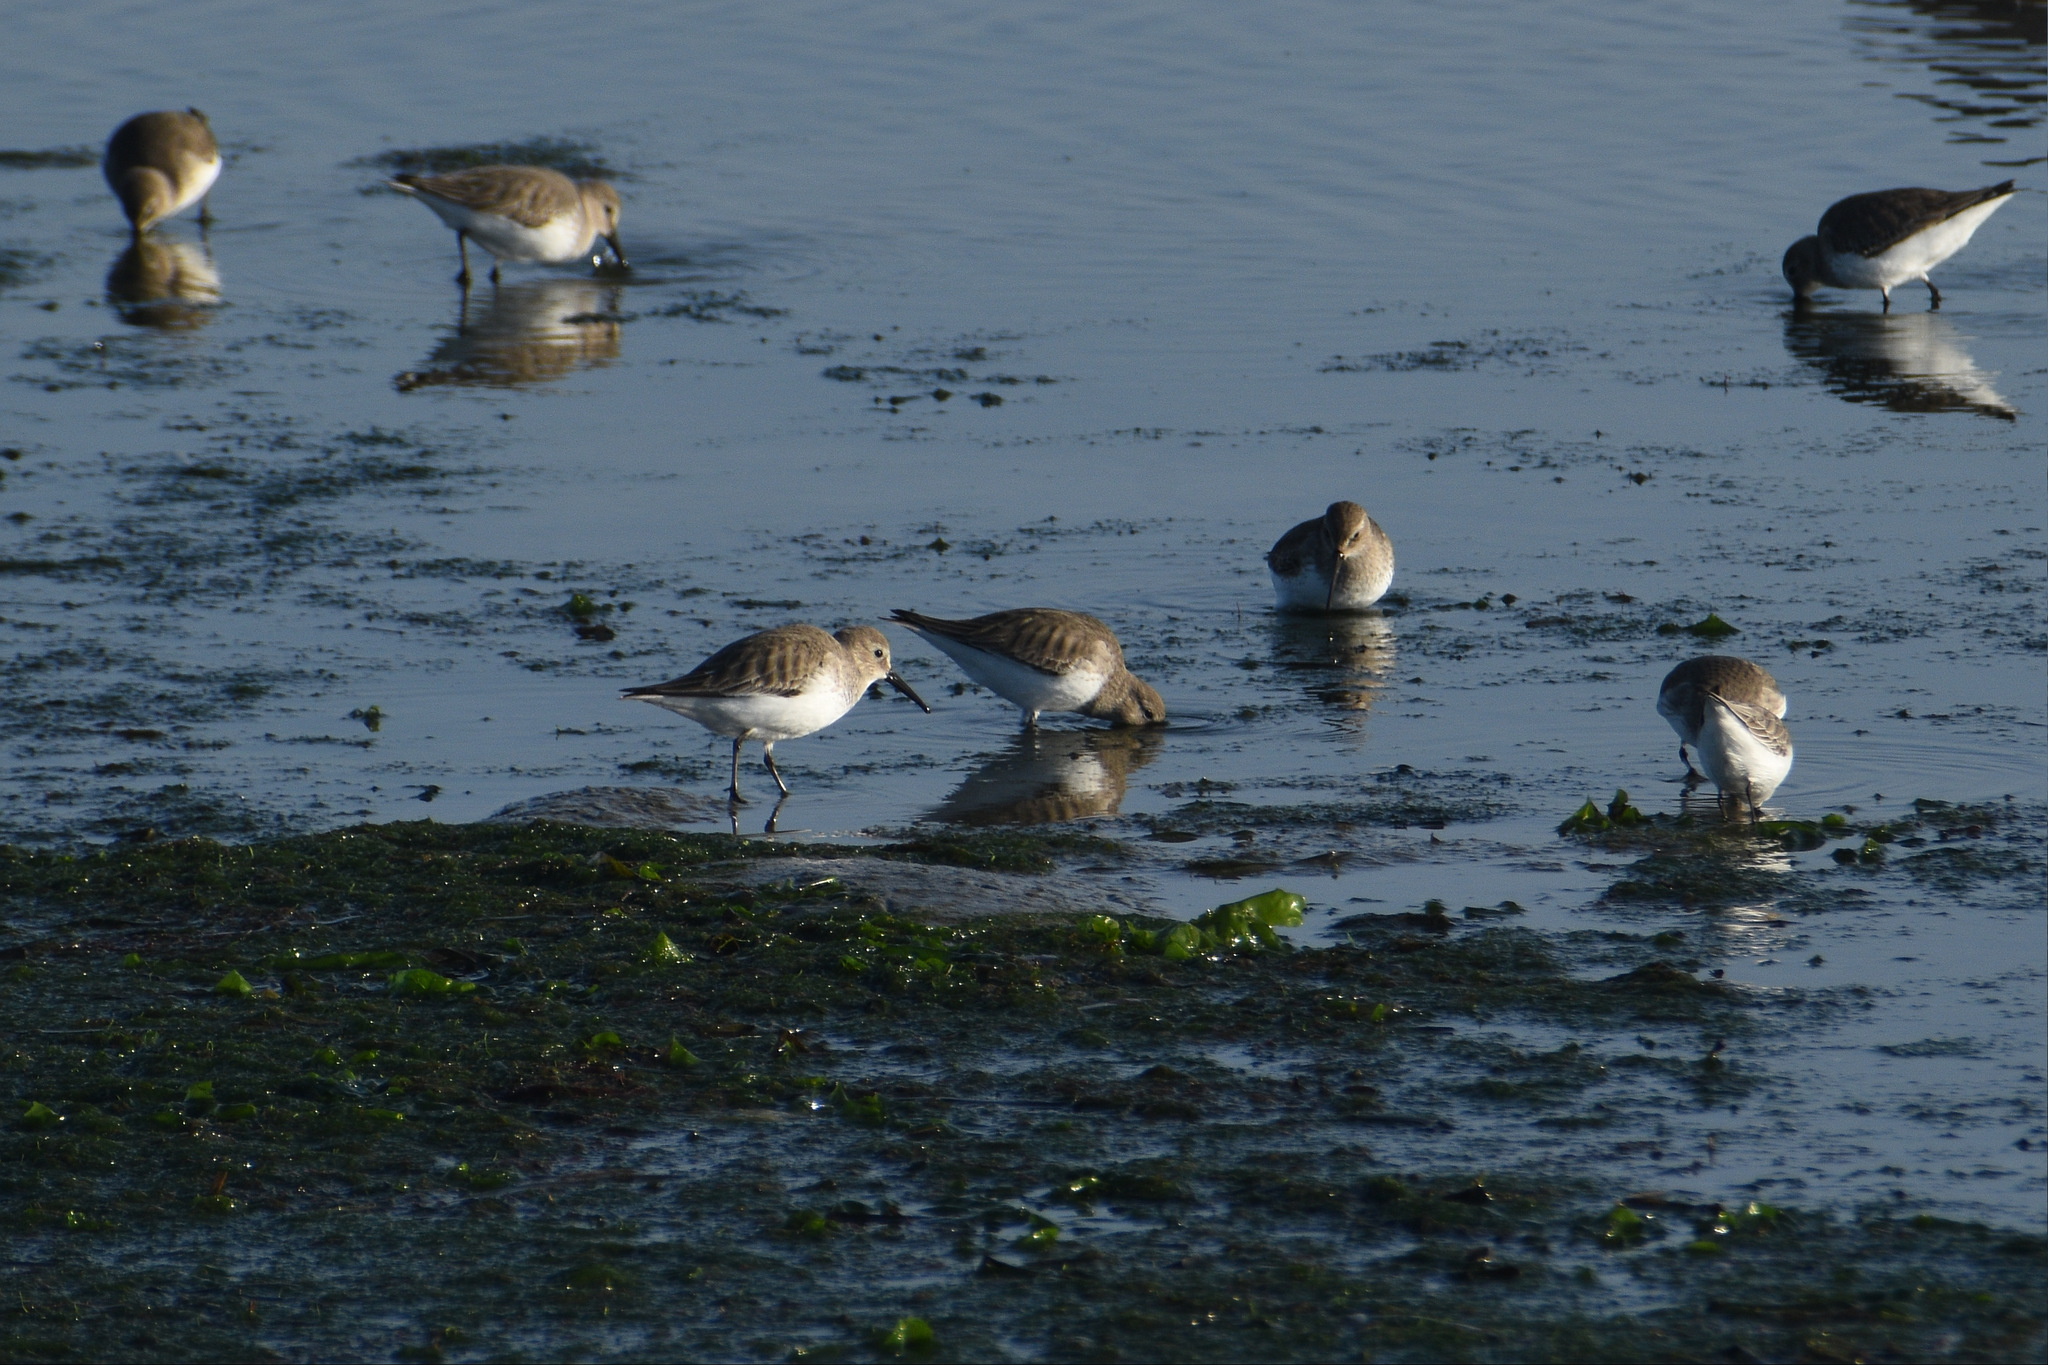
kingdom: Animalia
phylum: Chordata
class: Aves
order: Charadriiformes
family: Scolopacidae
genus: Calidris
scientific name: Calidris alpina
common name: Dunlin
